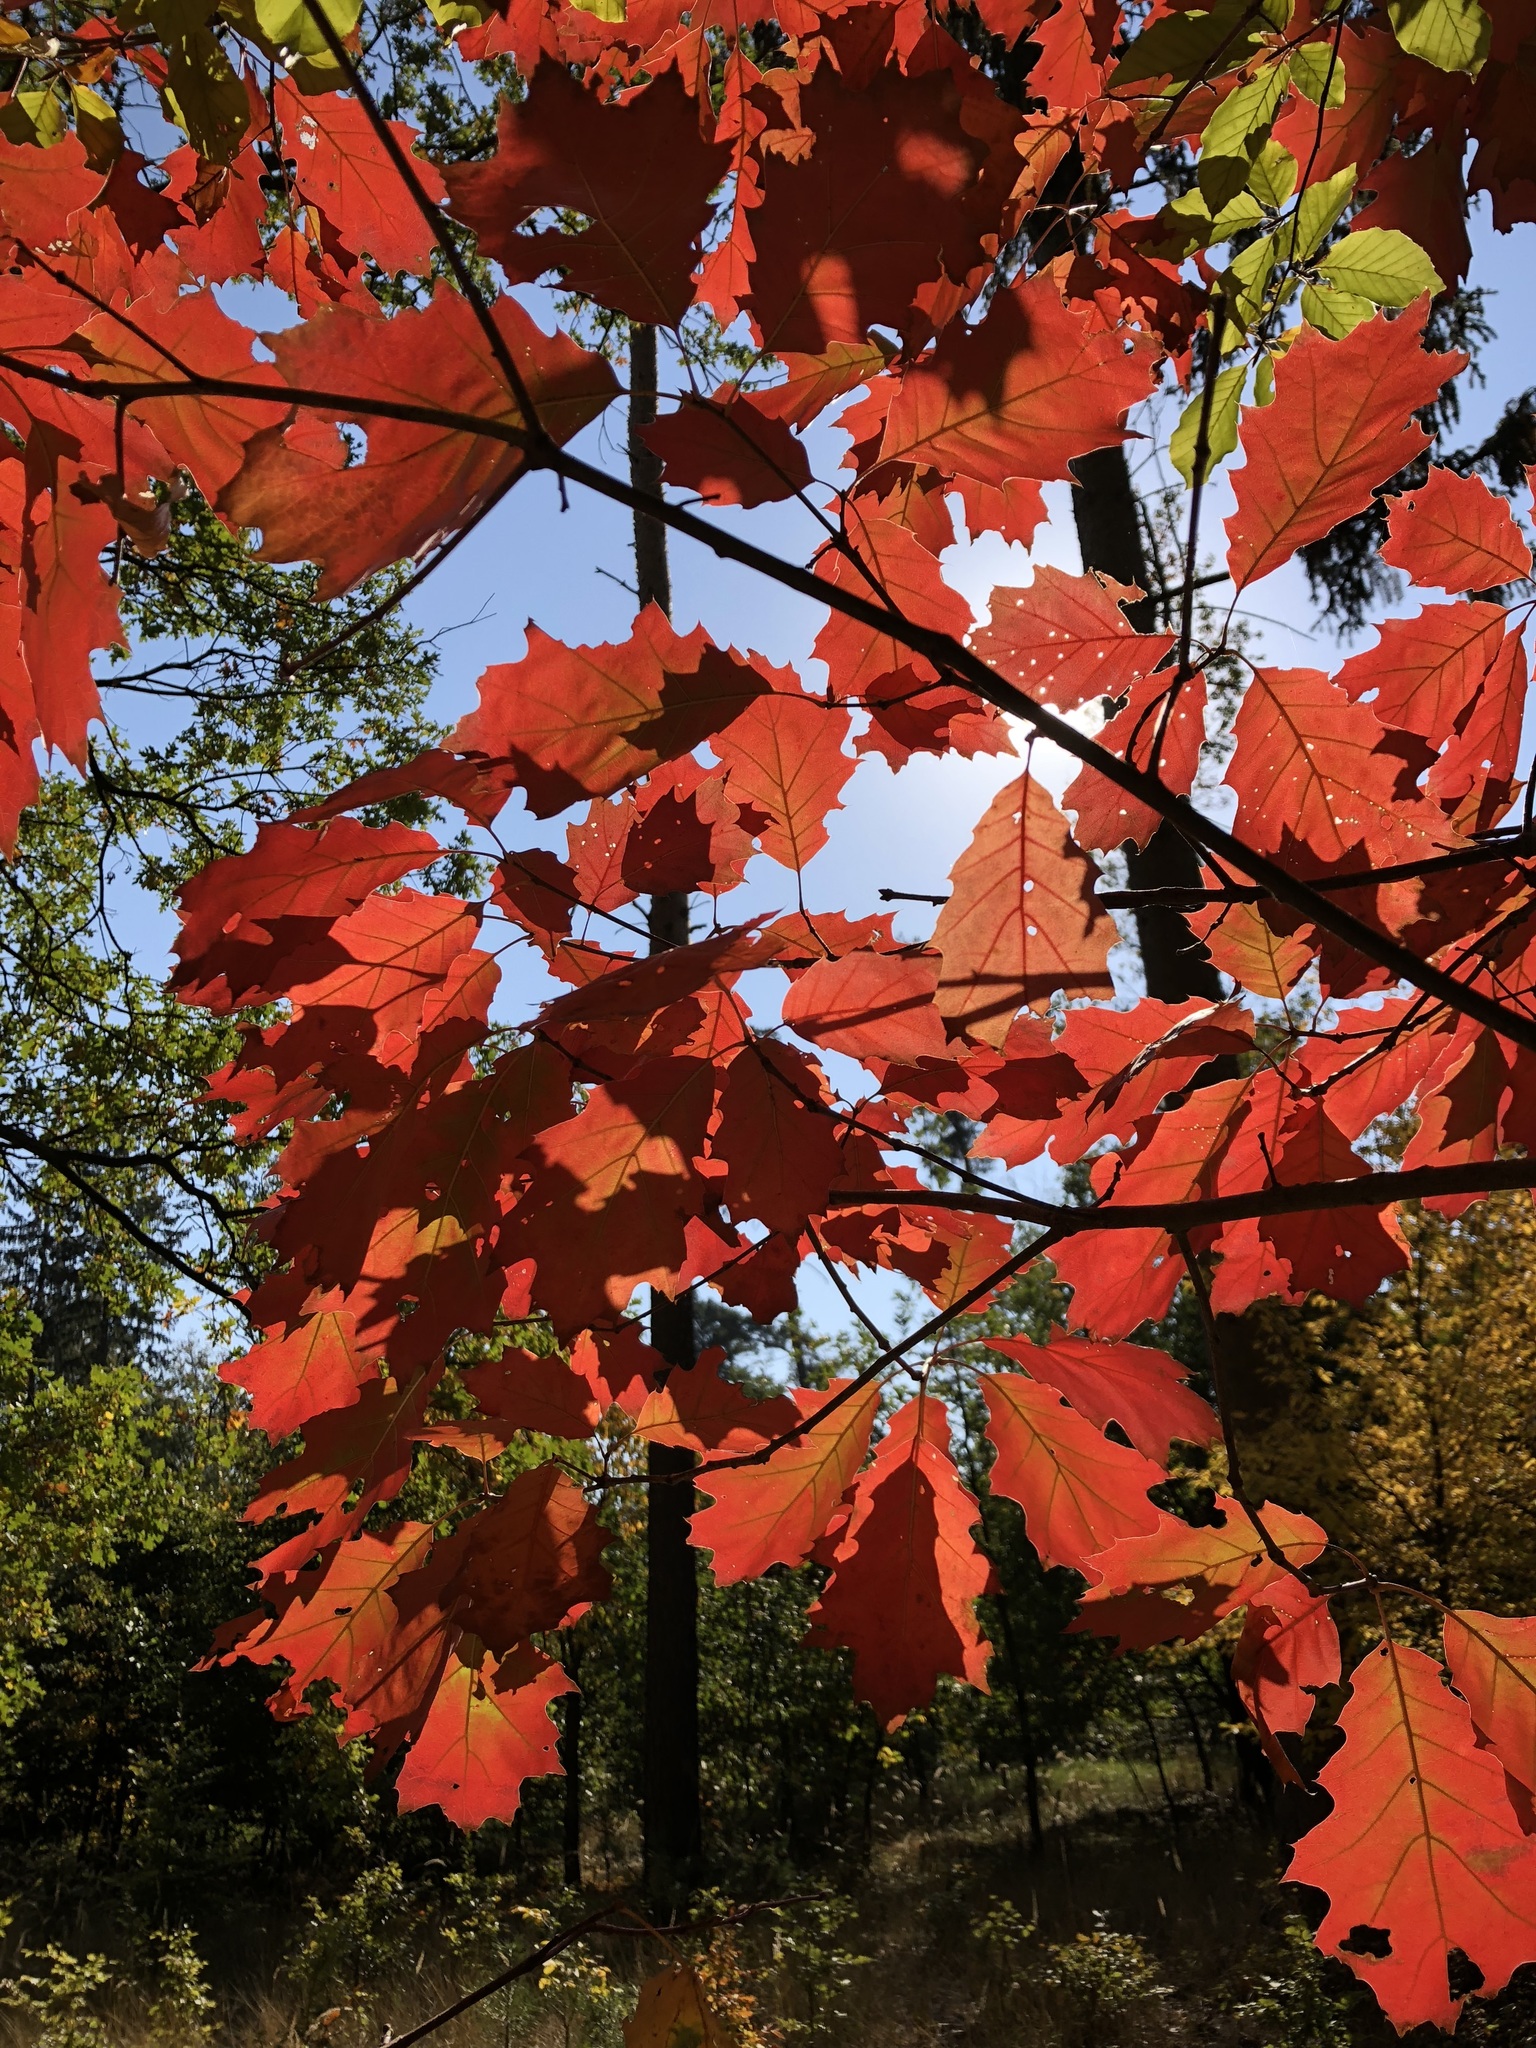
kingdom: Plantae
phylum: Tracheophyta
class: Magnoliopsida
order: Fagales
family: Fagaceae
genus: Quercus
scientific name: Quercus rubra
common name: Red oak
